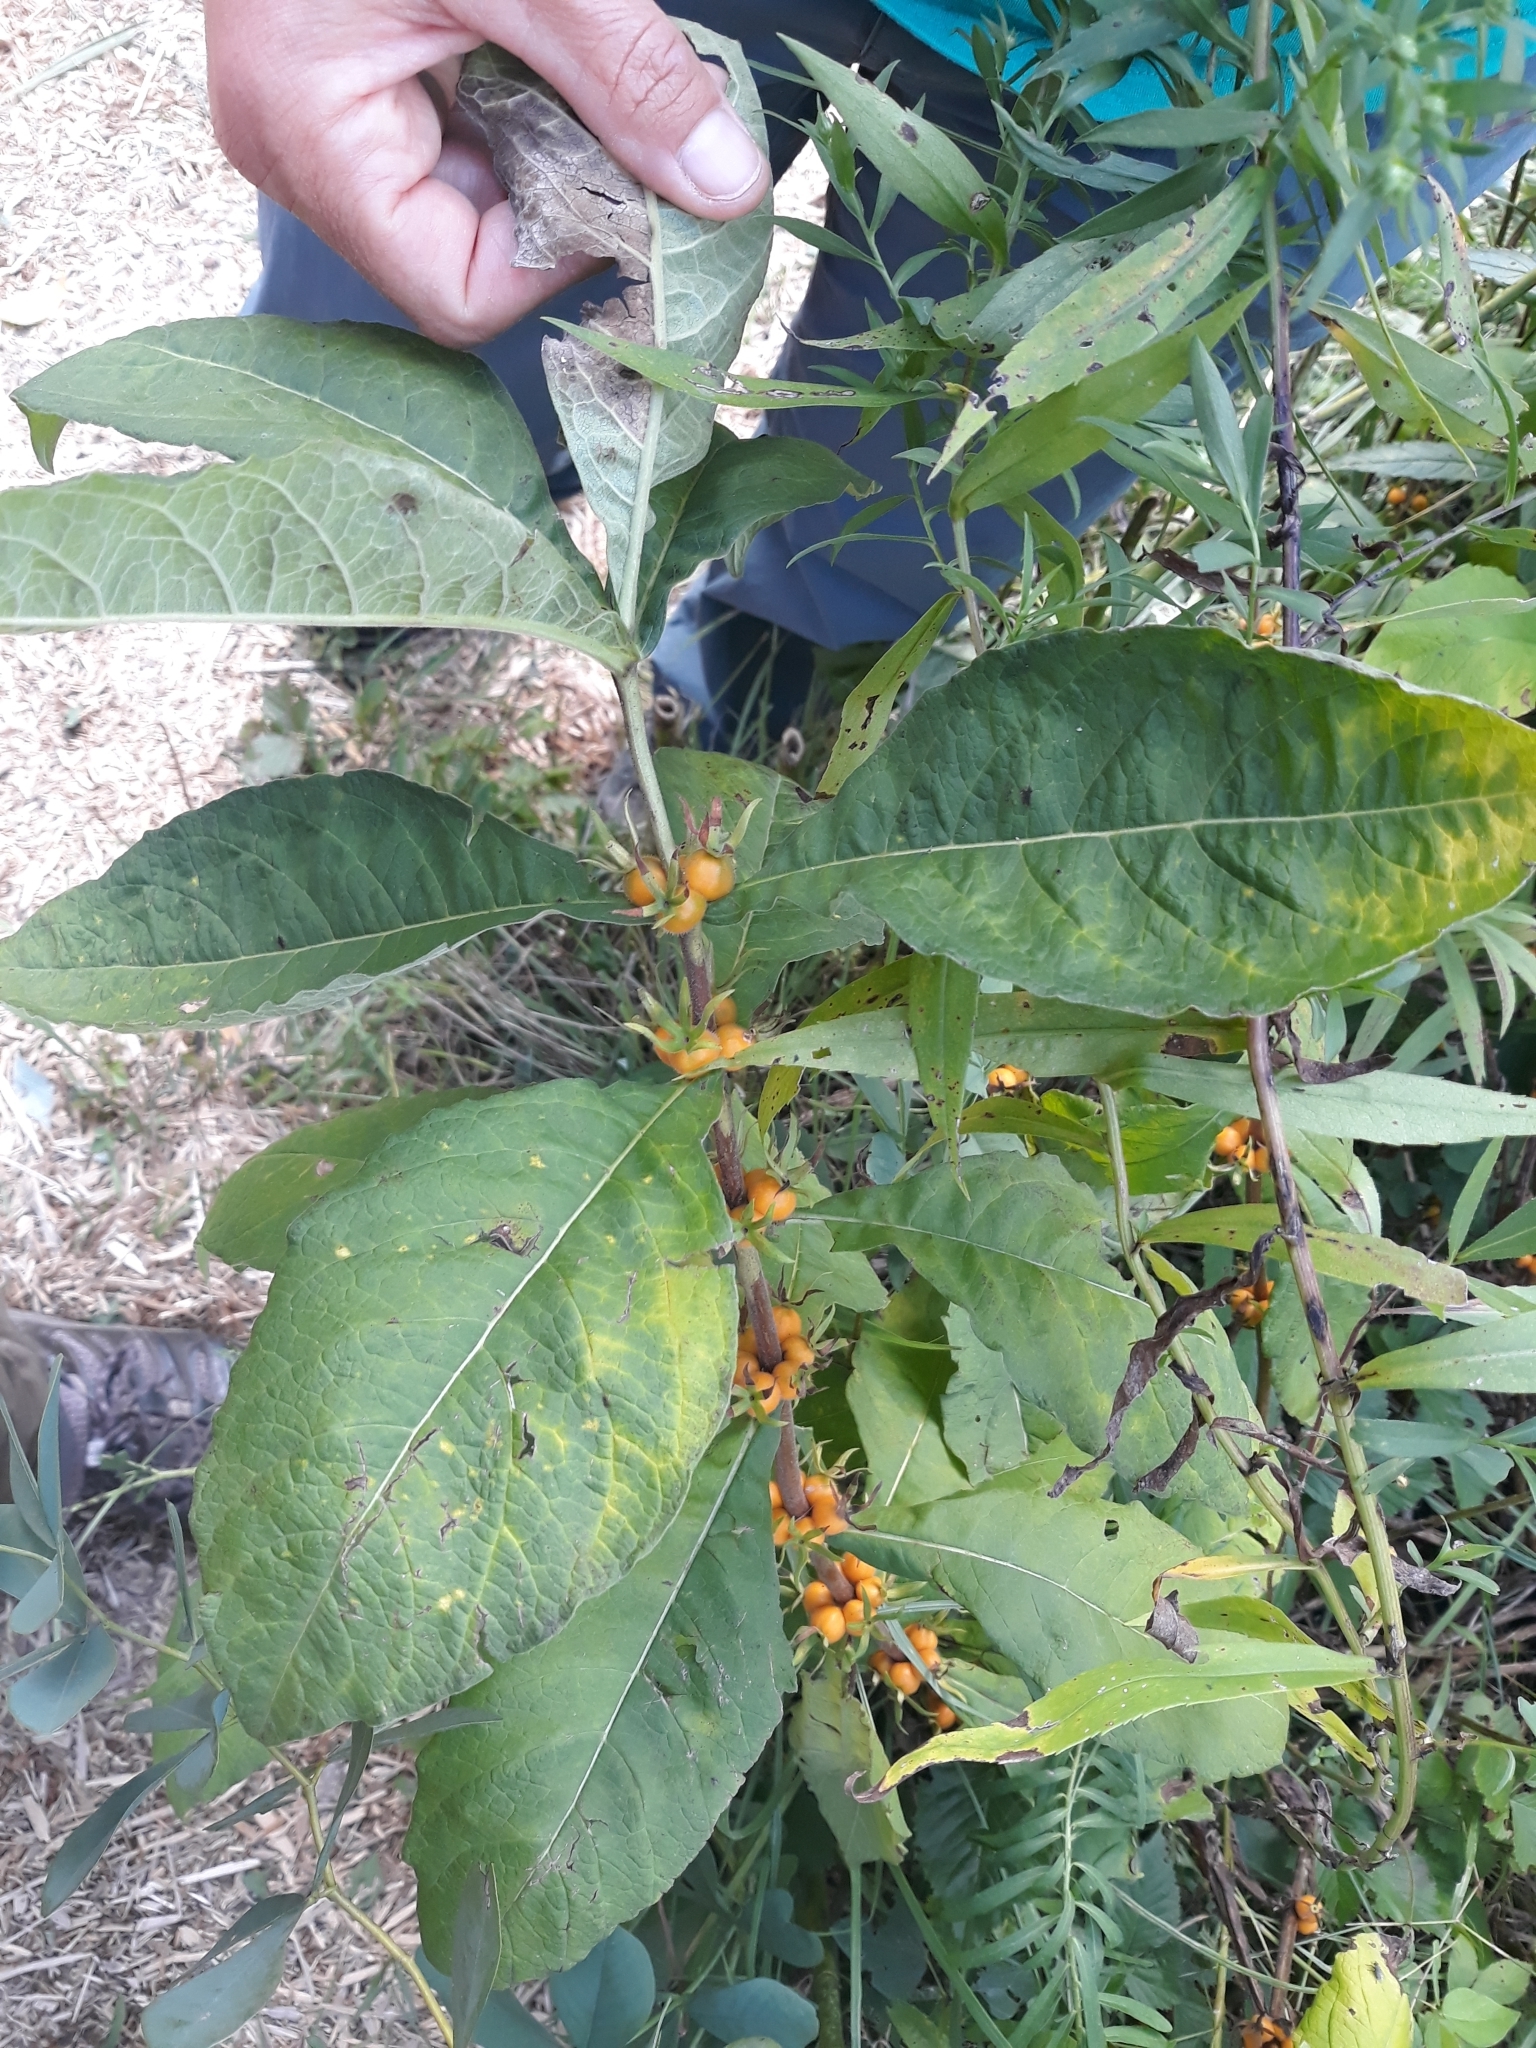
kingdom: Plantae
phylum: Tracheophyta
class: Magnoliopsida
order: Dipsacales
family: Caprifoliaceae
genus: Triosteum
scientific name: Triosteum aurantiacum
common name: Coffee tinker's-weed
